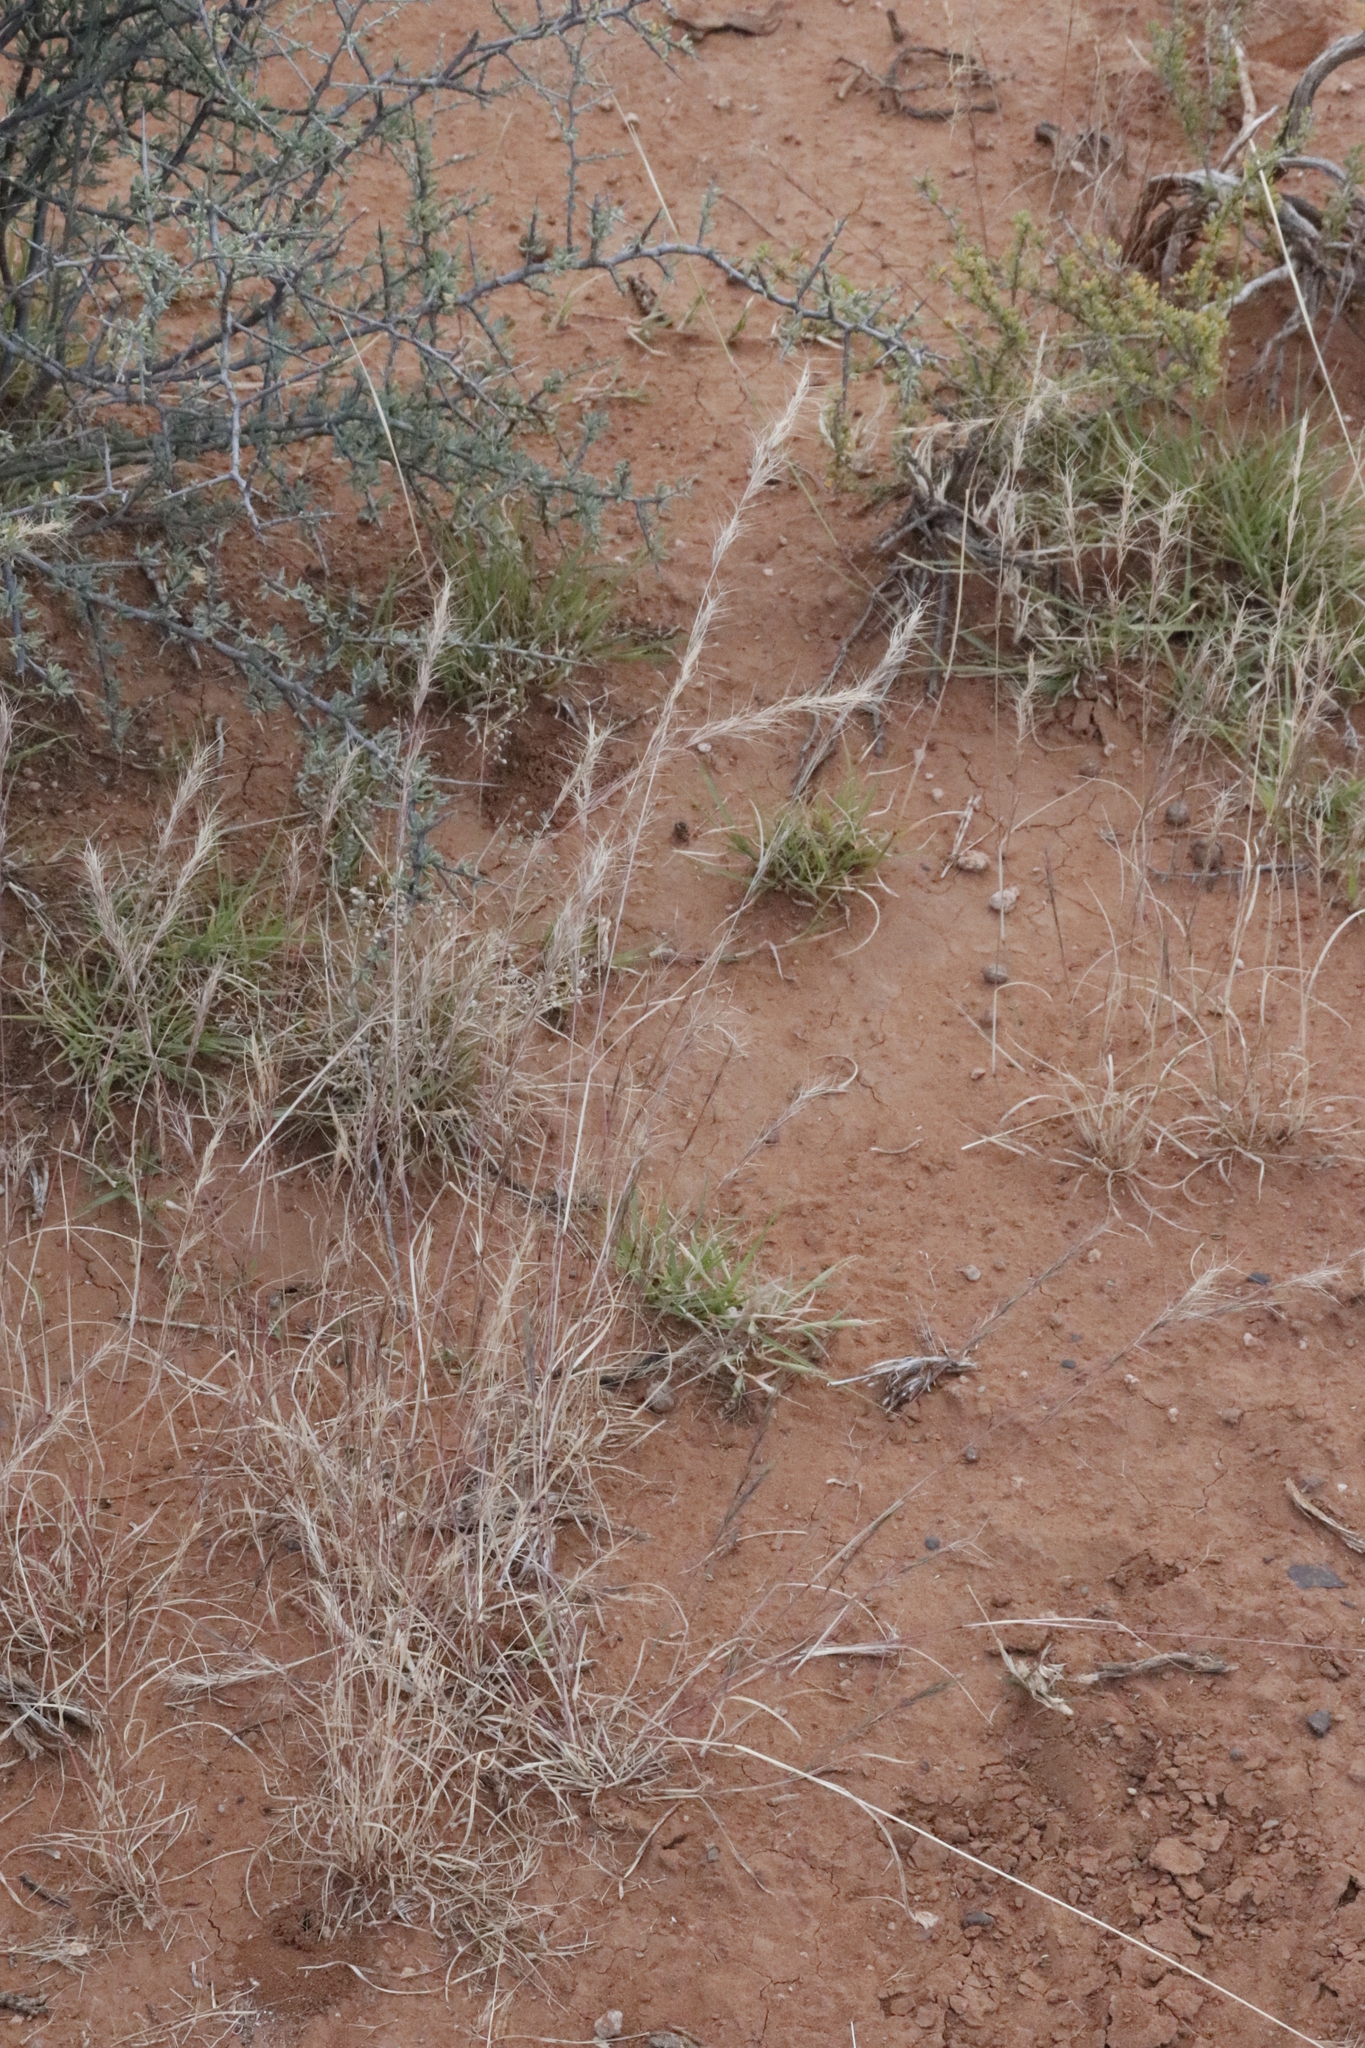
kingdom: Plantae
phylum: Tracheophyta
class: Liliopsida
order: Poales
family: Poaceae
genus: Aristida
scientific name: Aristida adscensionis
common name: Sixweeks threeawn
